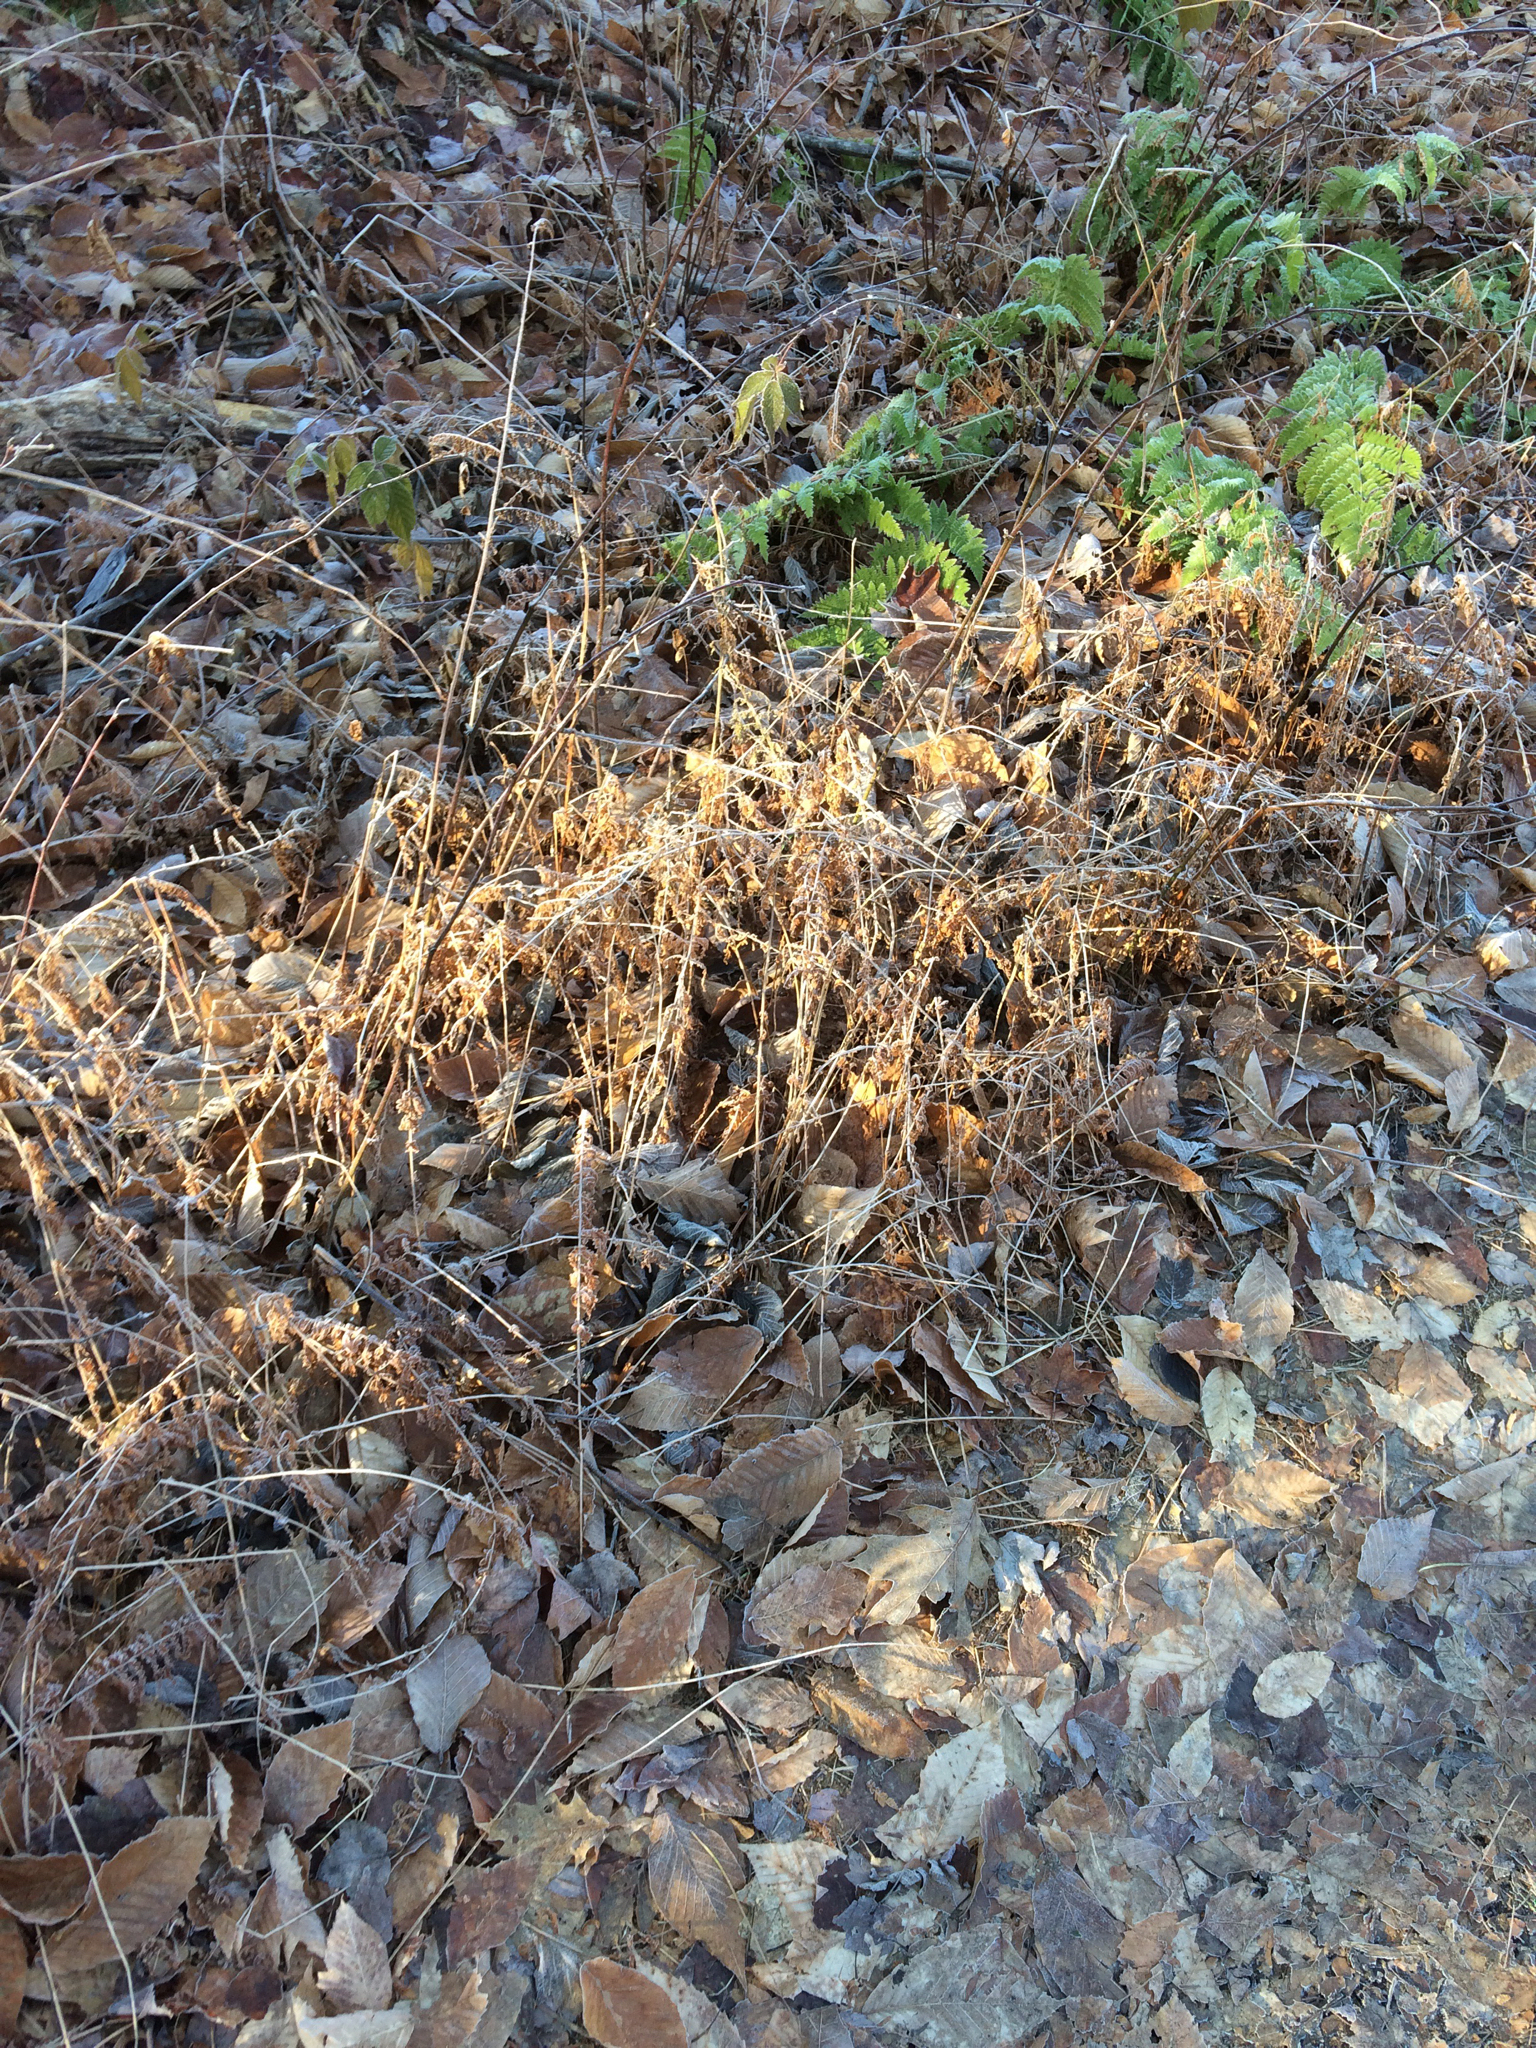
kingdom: Plantae
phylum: Tracheophyta
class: Polypodiopsida
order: Polypodiales
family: Dennstaedtiaceae
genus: Sitobolium
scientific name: Sitobolium punctilobum
